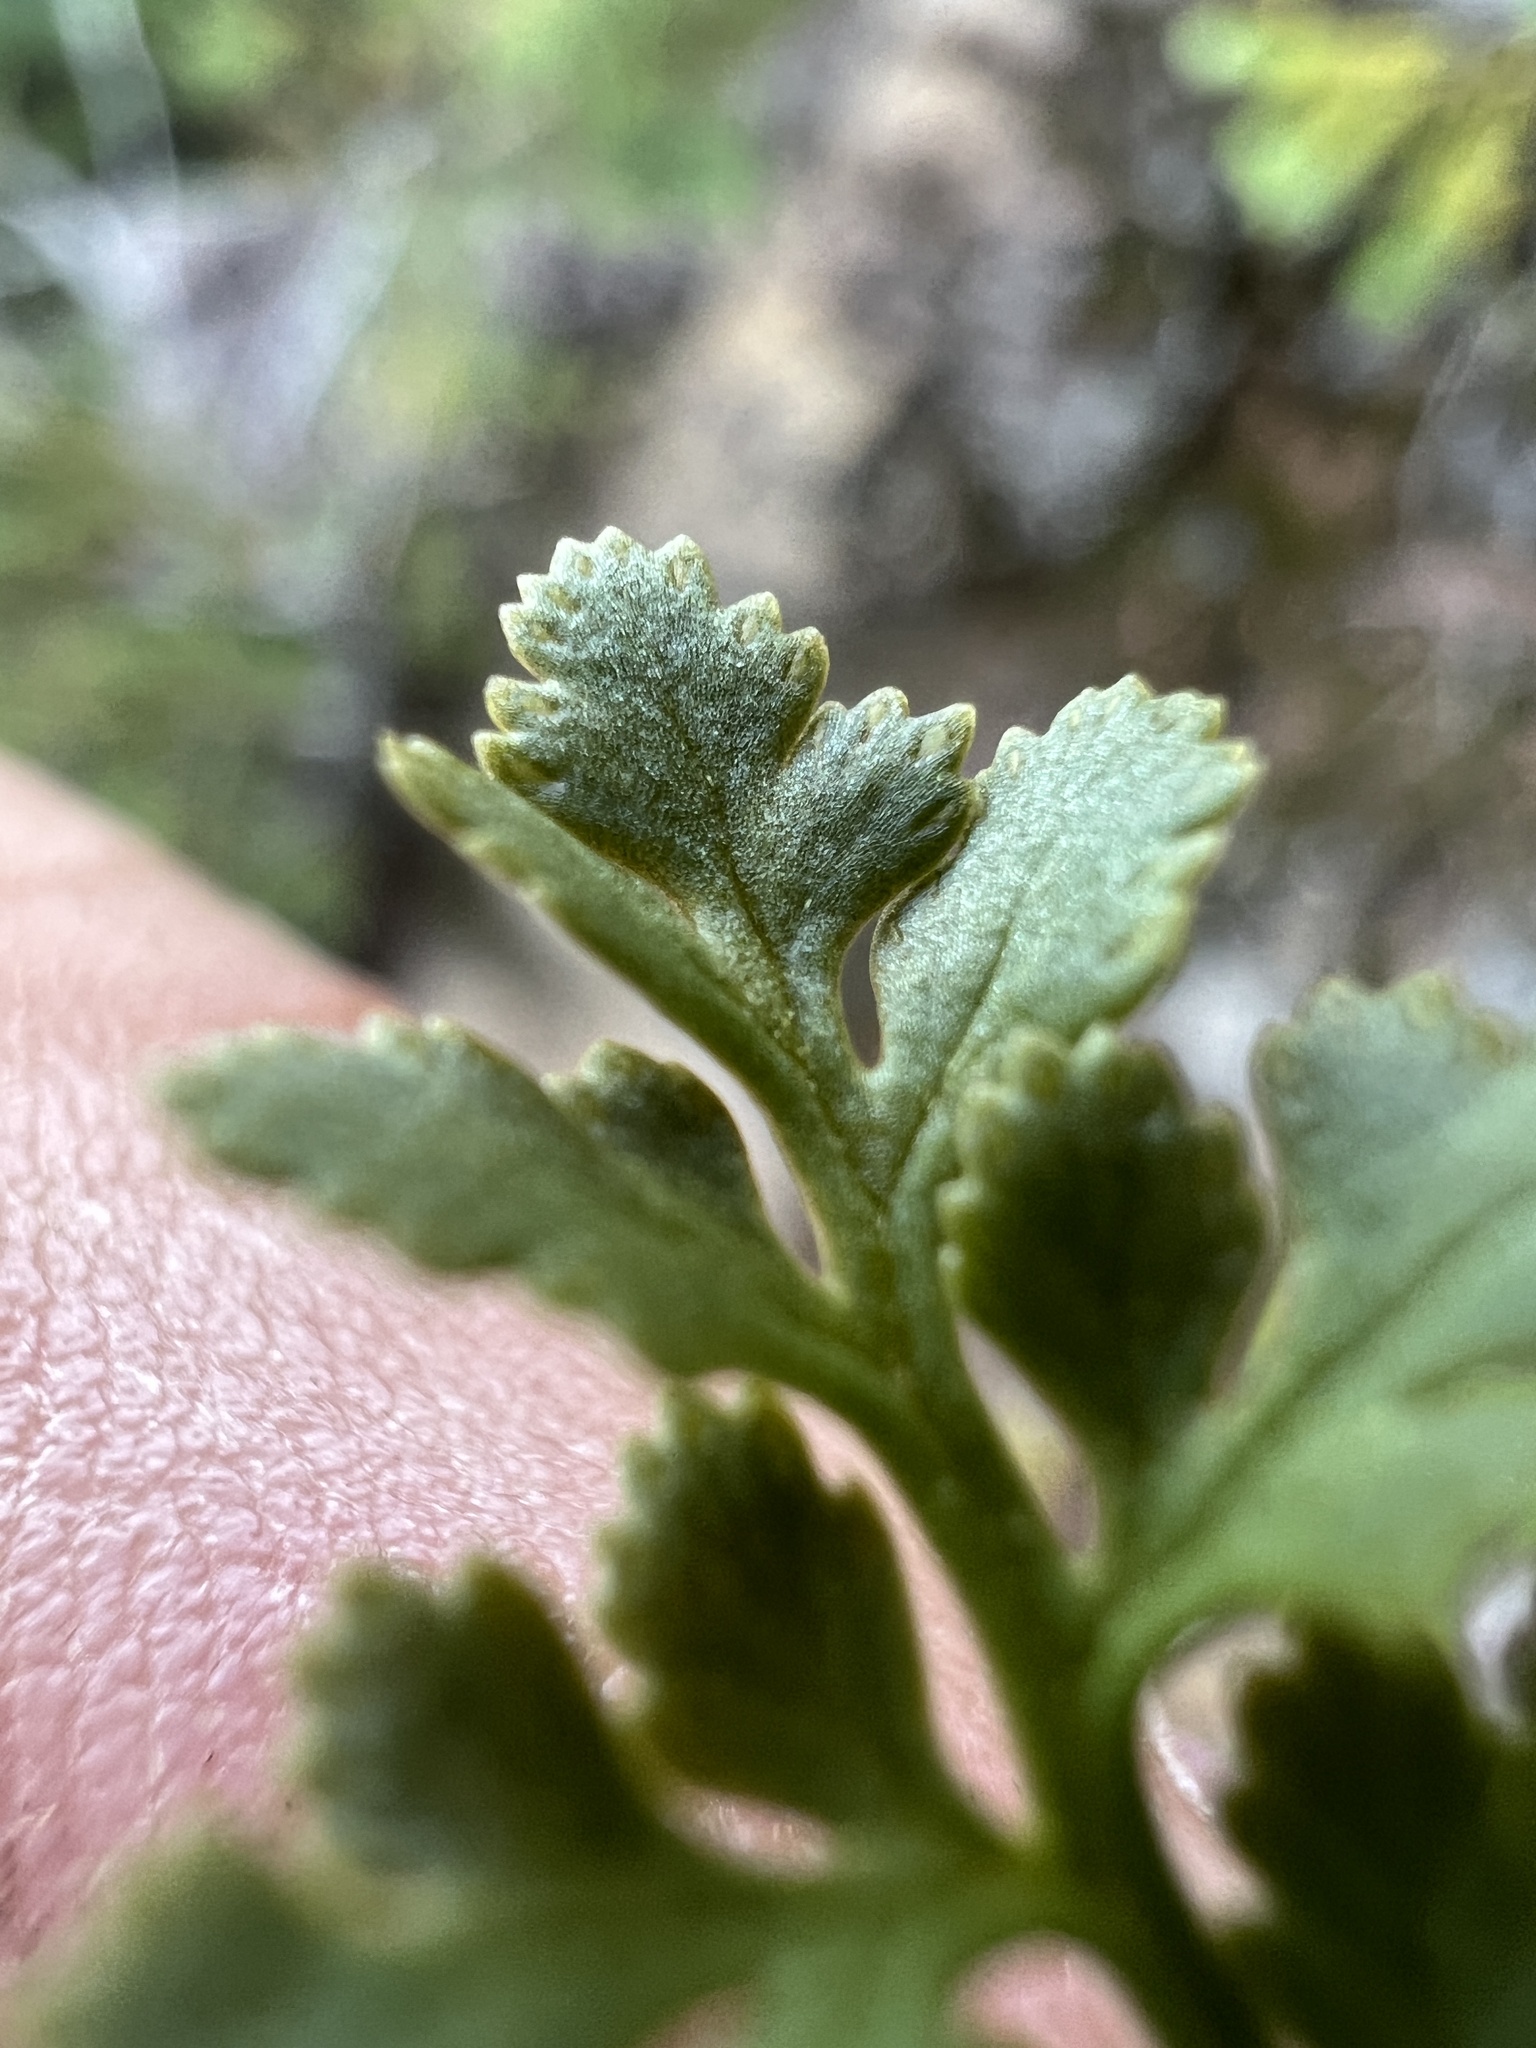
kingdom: Plantae
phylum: Tracheophyta
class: Polypodiopsida
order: Polypodiales
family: Pteridaceae
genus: Cryptogramma
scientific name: Cryptogramma acrostichoides
